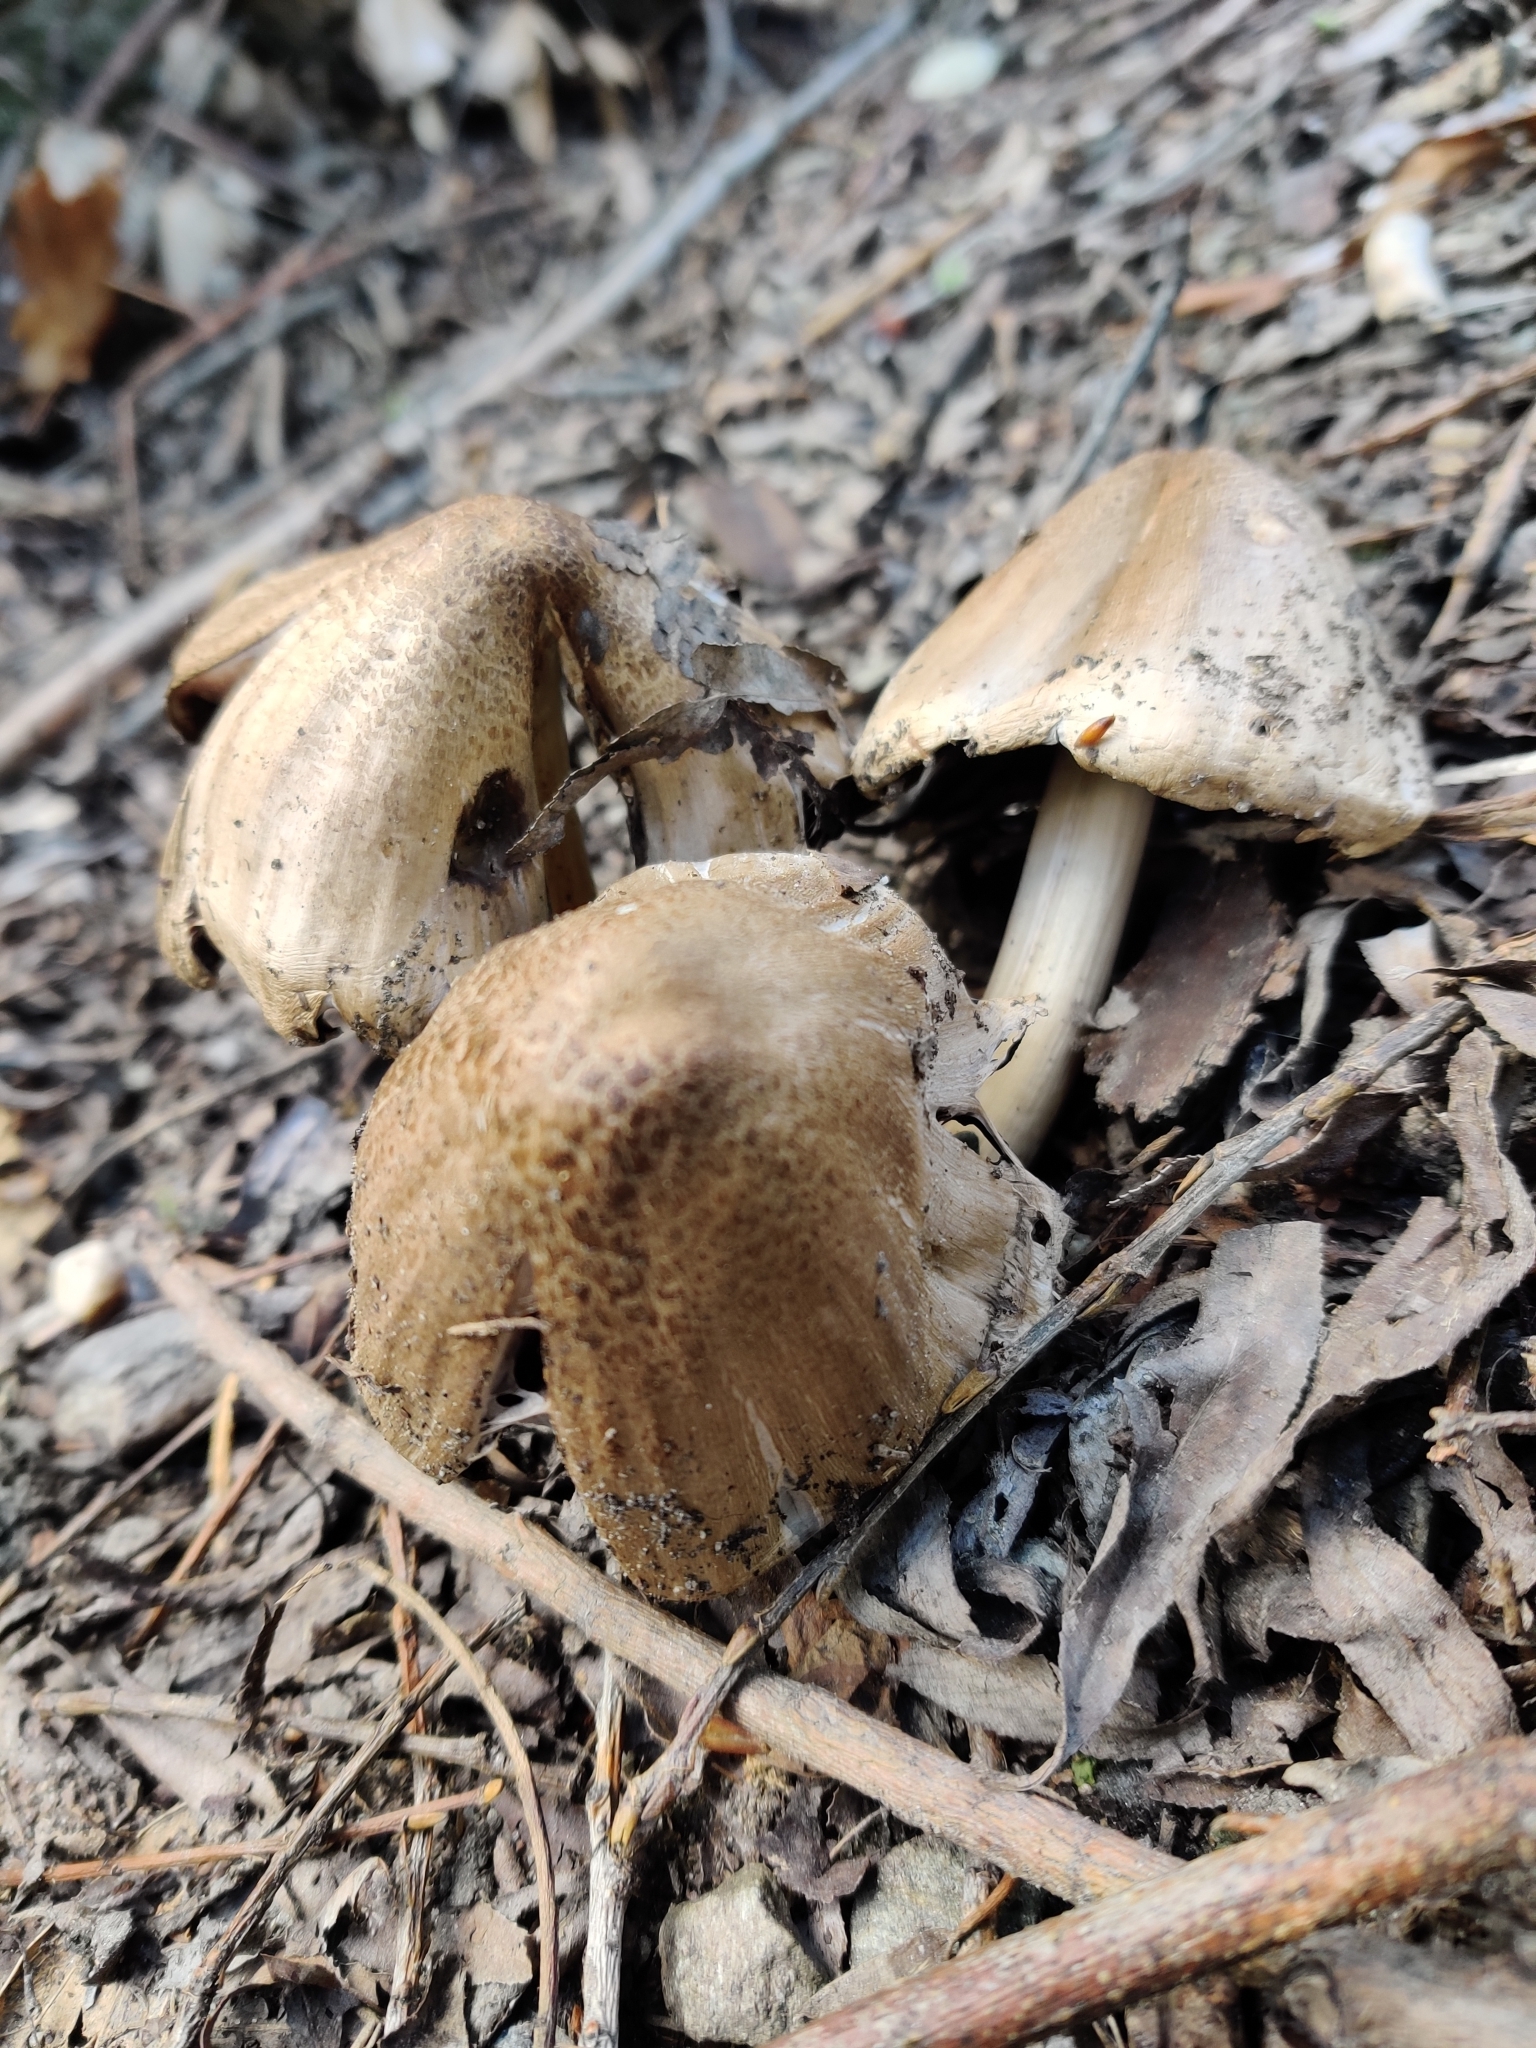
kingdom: Fungi
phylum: Basidiomycota
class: Agaricomycetes
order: Agaricales
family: Psathyrellaceae
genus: Coprinopsis
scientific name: Coprinopsis atramentaria
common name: Common ink-cap
